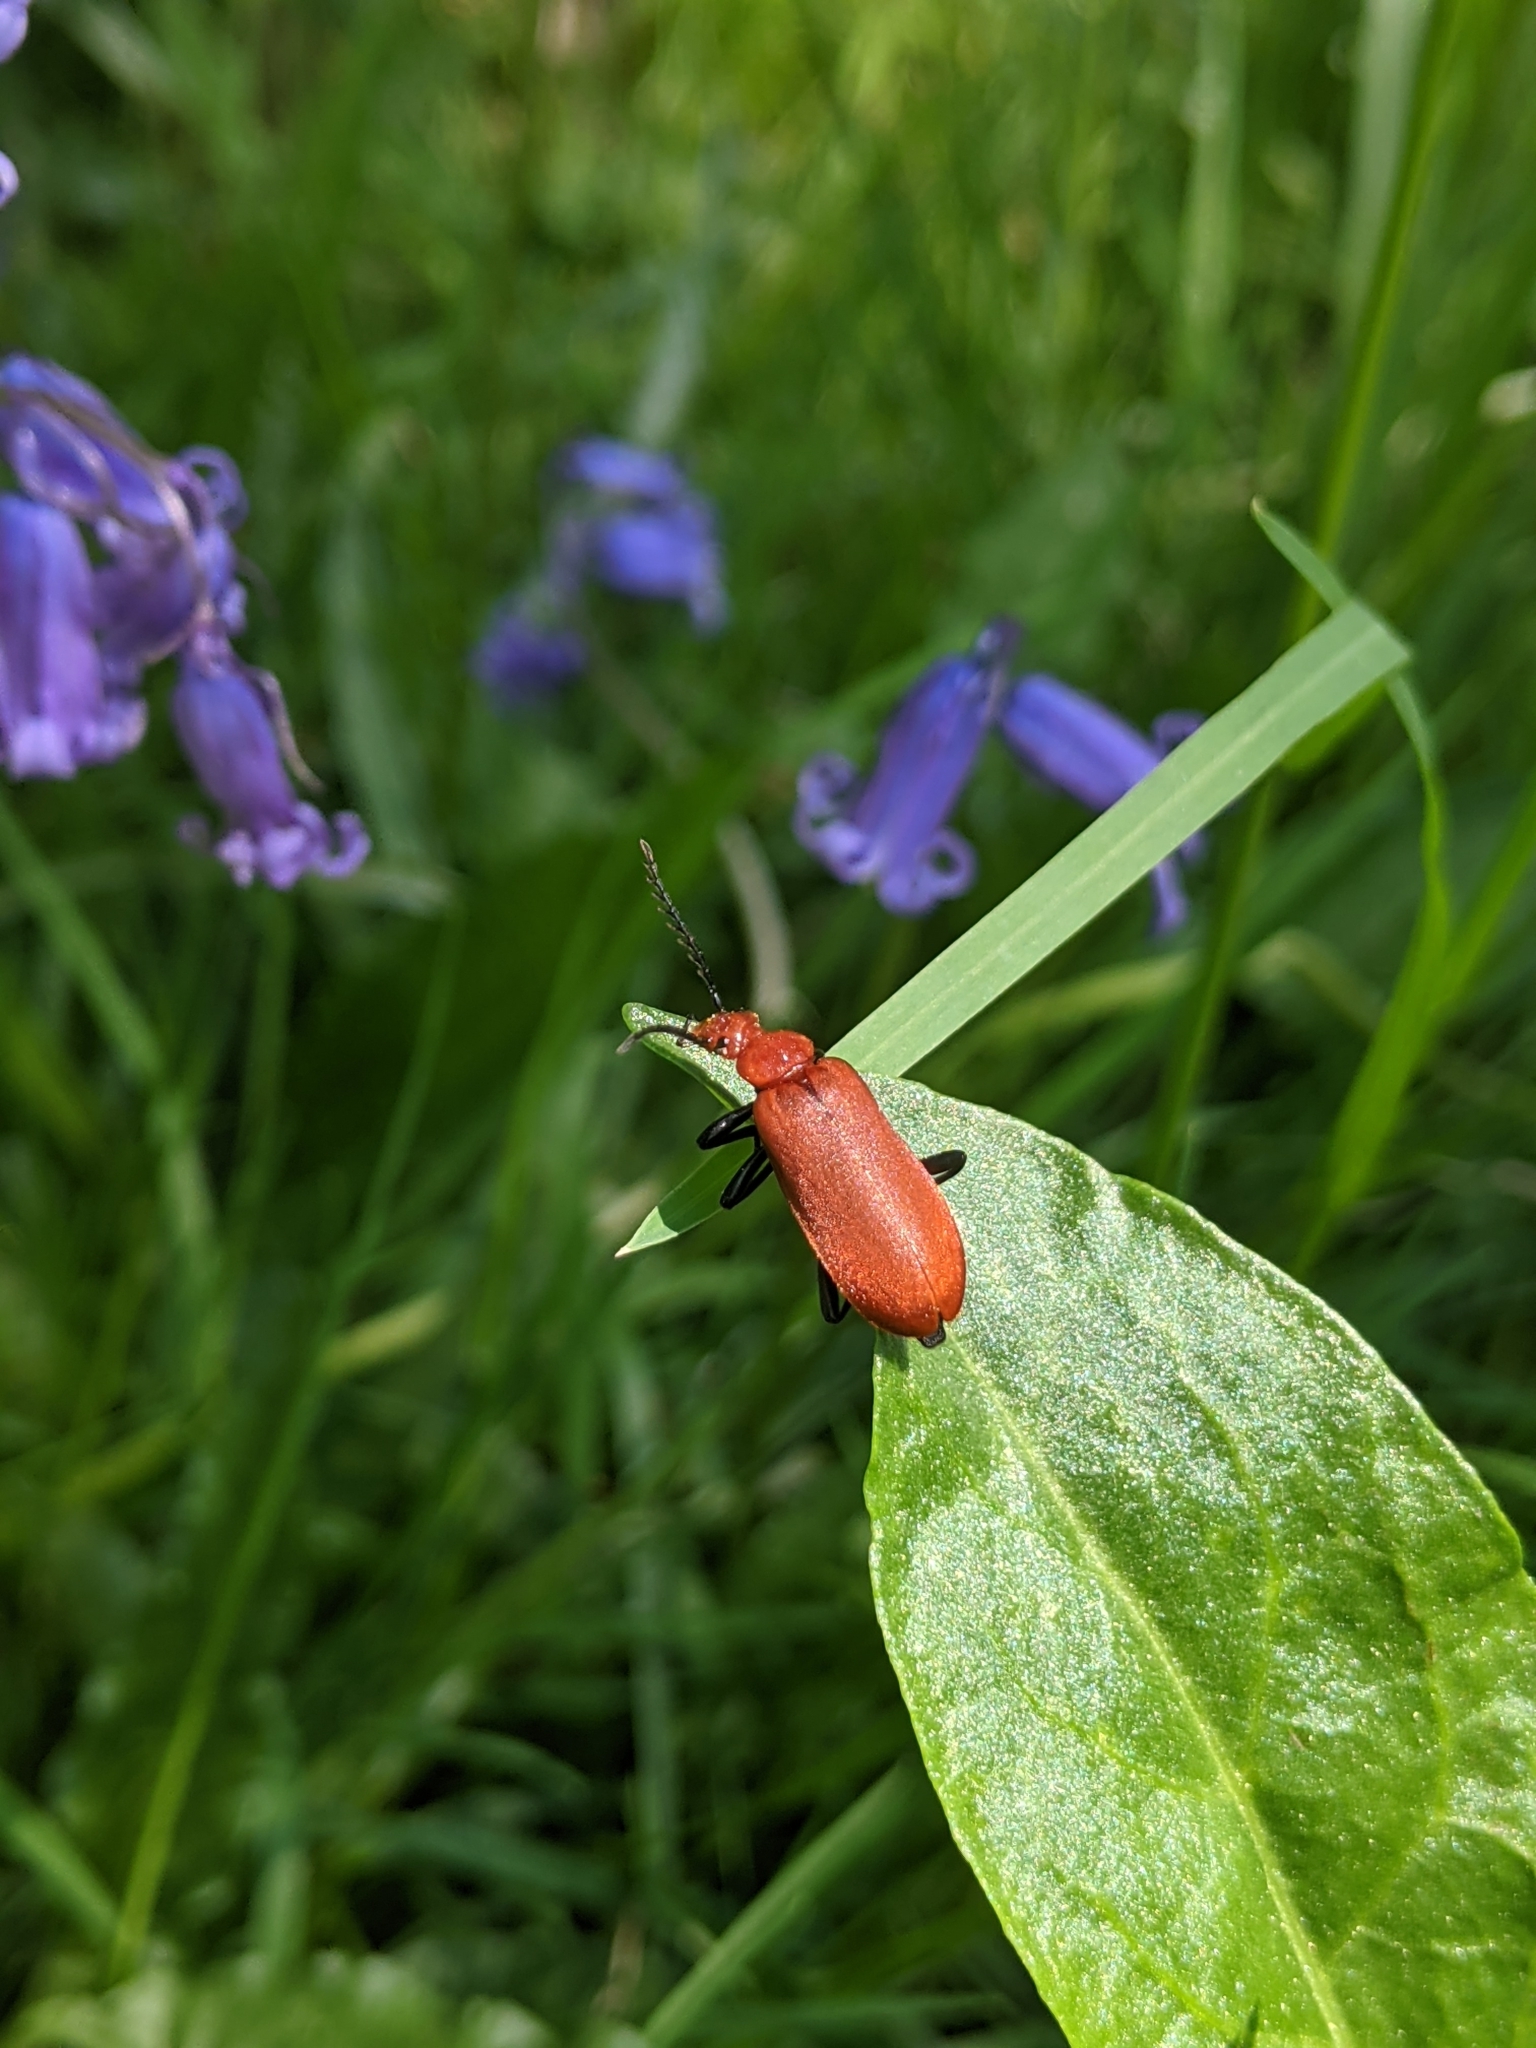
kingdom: Animalia
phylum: Arthropoda
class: Insecta
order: Coleoptera
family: Pyrochroidae
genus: Pyrochroa
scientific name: Pyrochroa serraticornis
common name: Red-headed cardinal beetle
